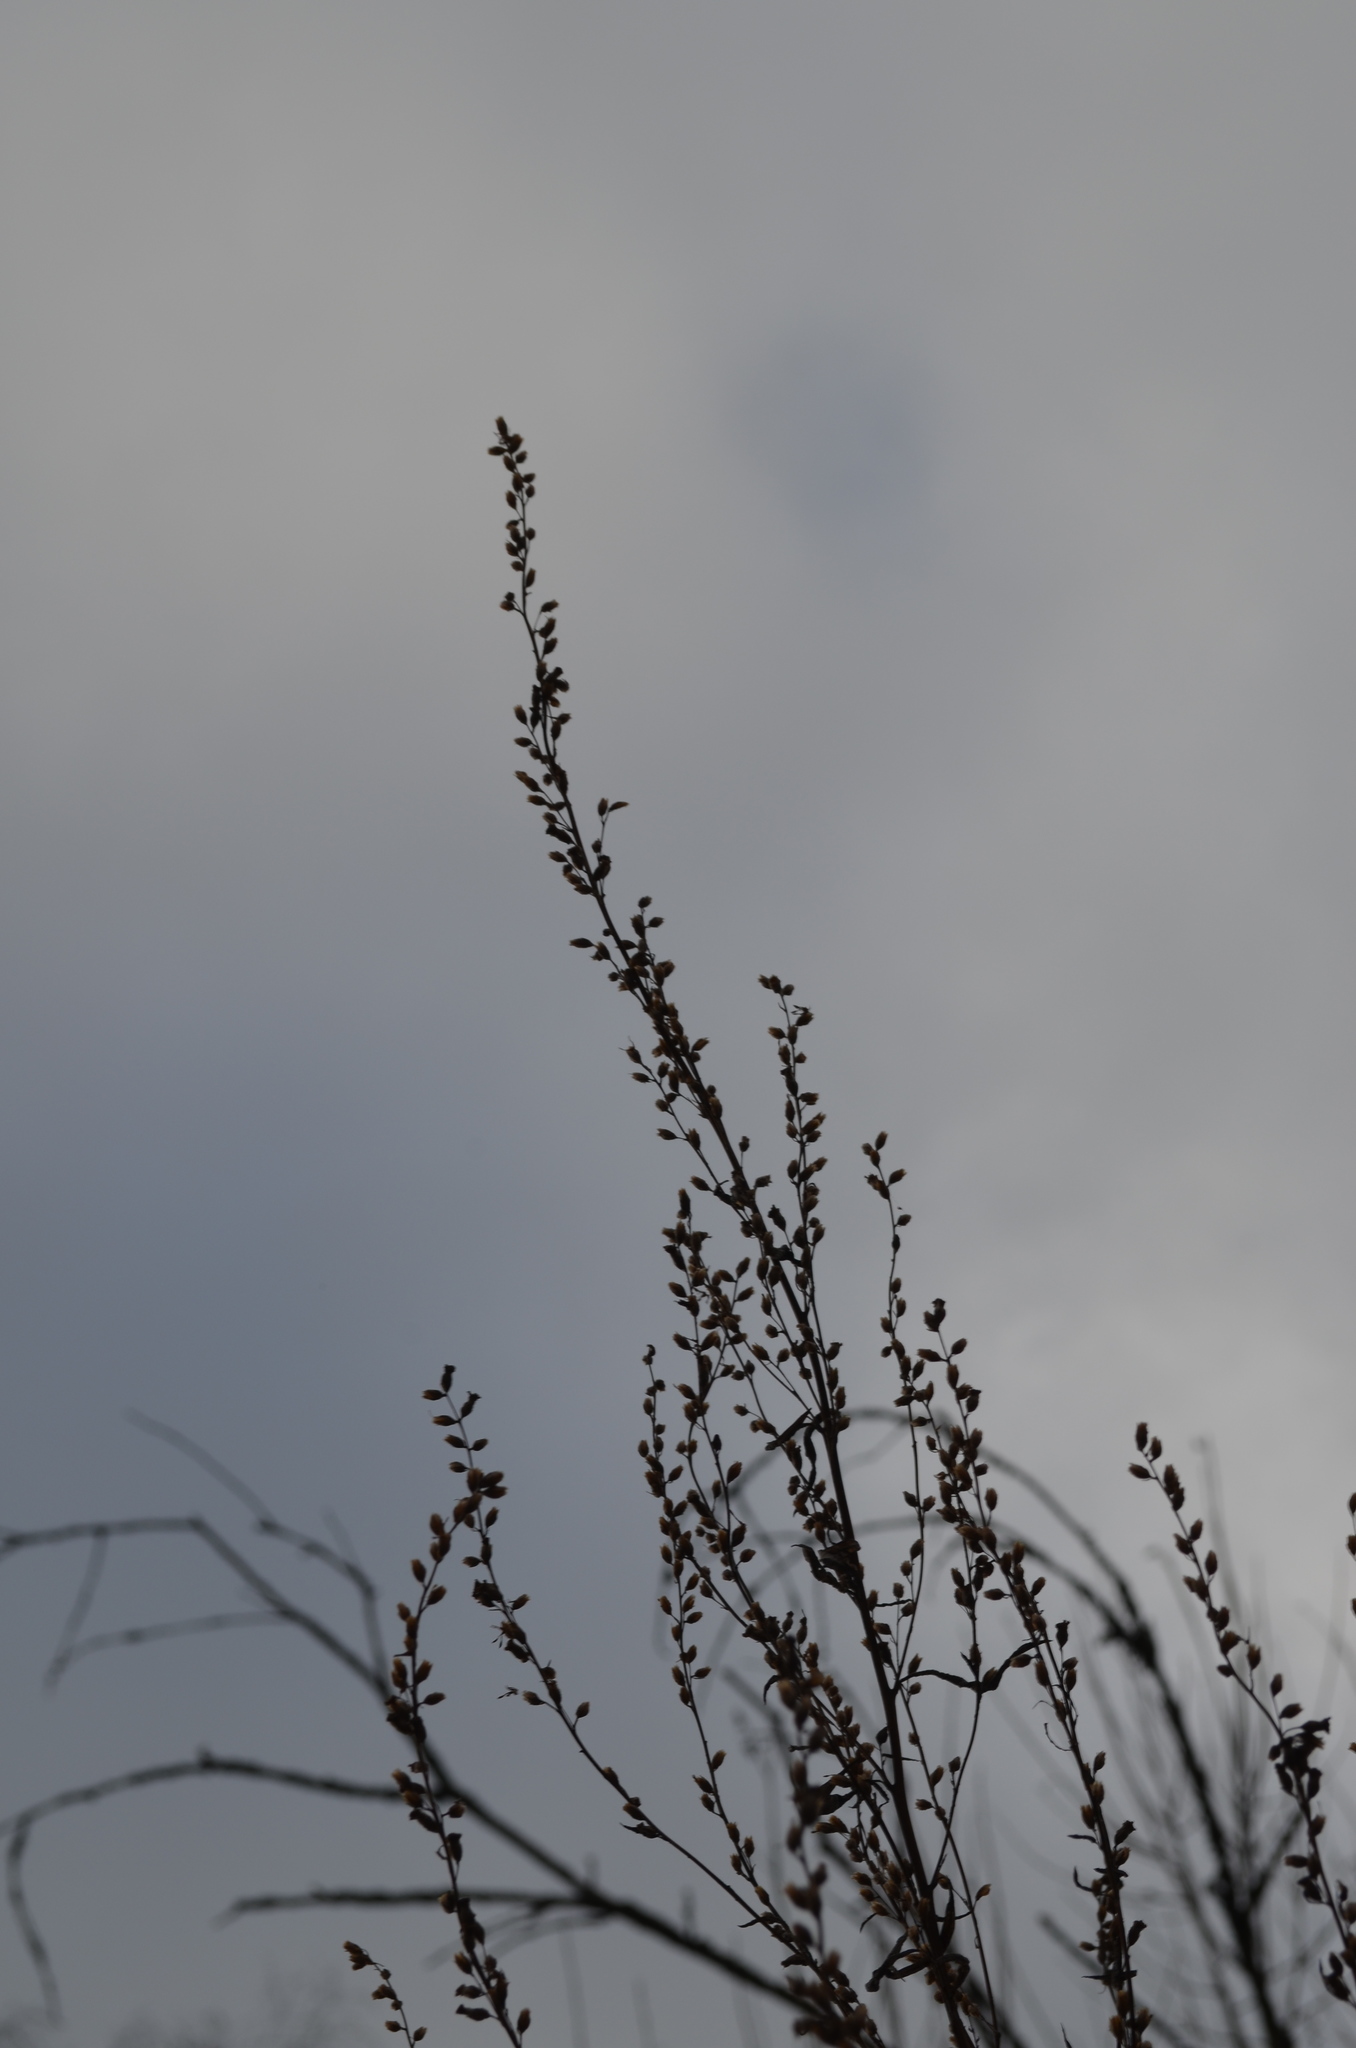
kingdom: Plantae
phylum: Tracheophyta
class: Magnoliopsida
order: Asterales
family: Asteraceae
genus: Artemisia
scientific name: Artemisia vulgaris
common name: Mugwort
